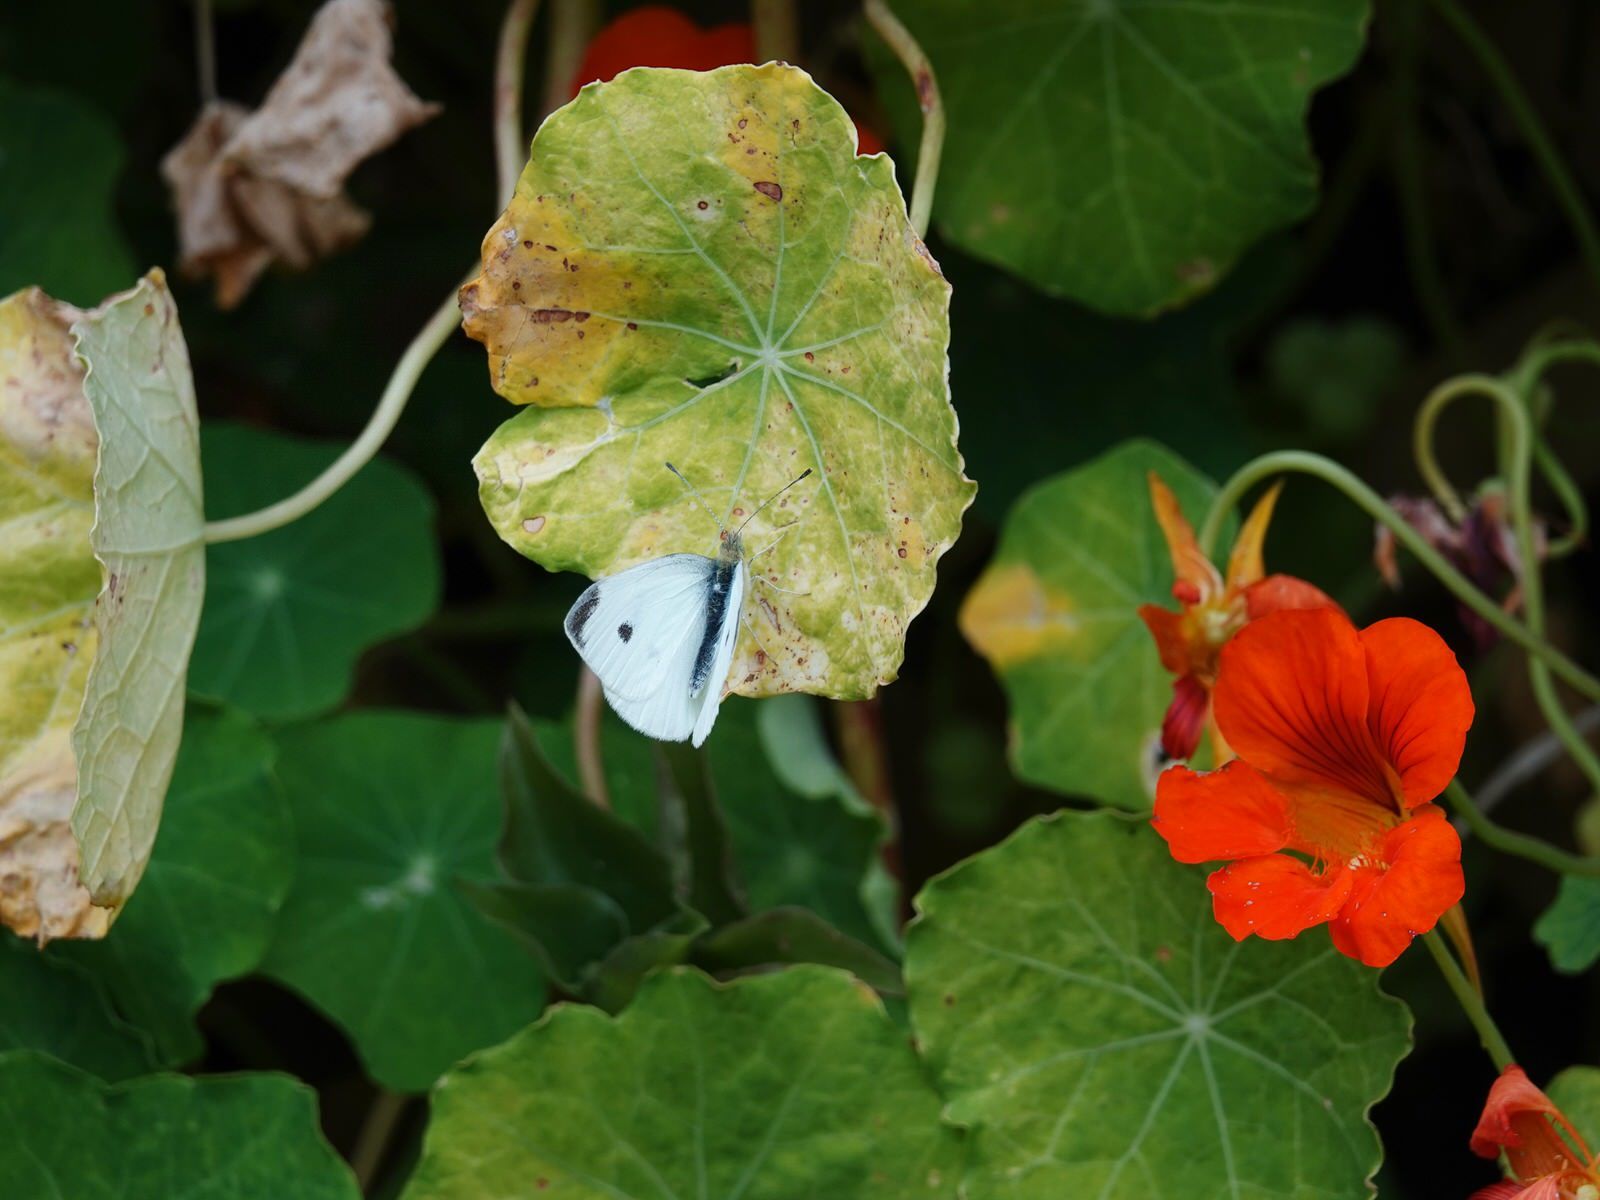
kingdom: Animalia
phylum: Arthropoda
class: Insecta
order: Lepidoptera
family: Pieridae
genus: Pieris
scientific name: Pieris rapae
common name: Small white
